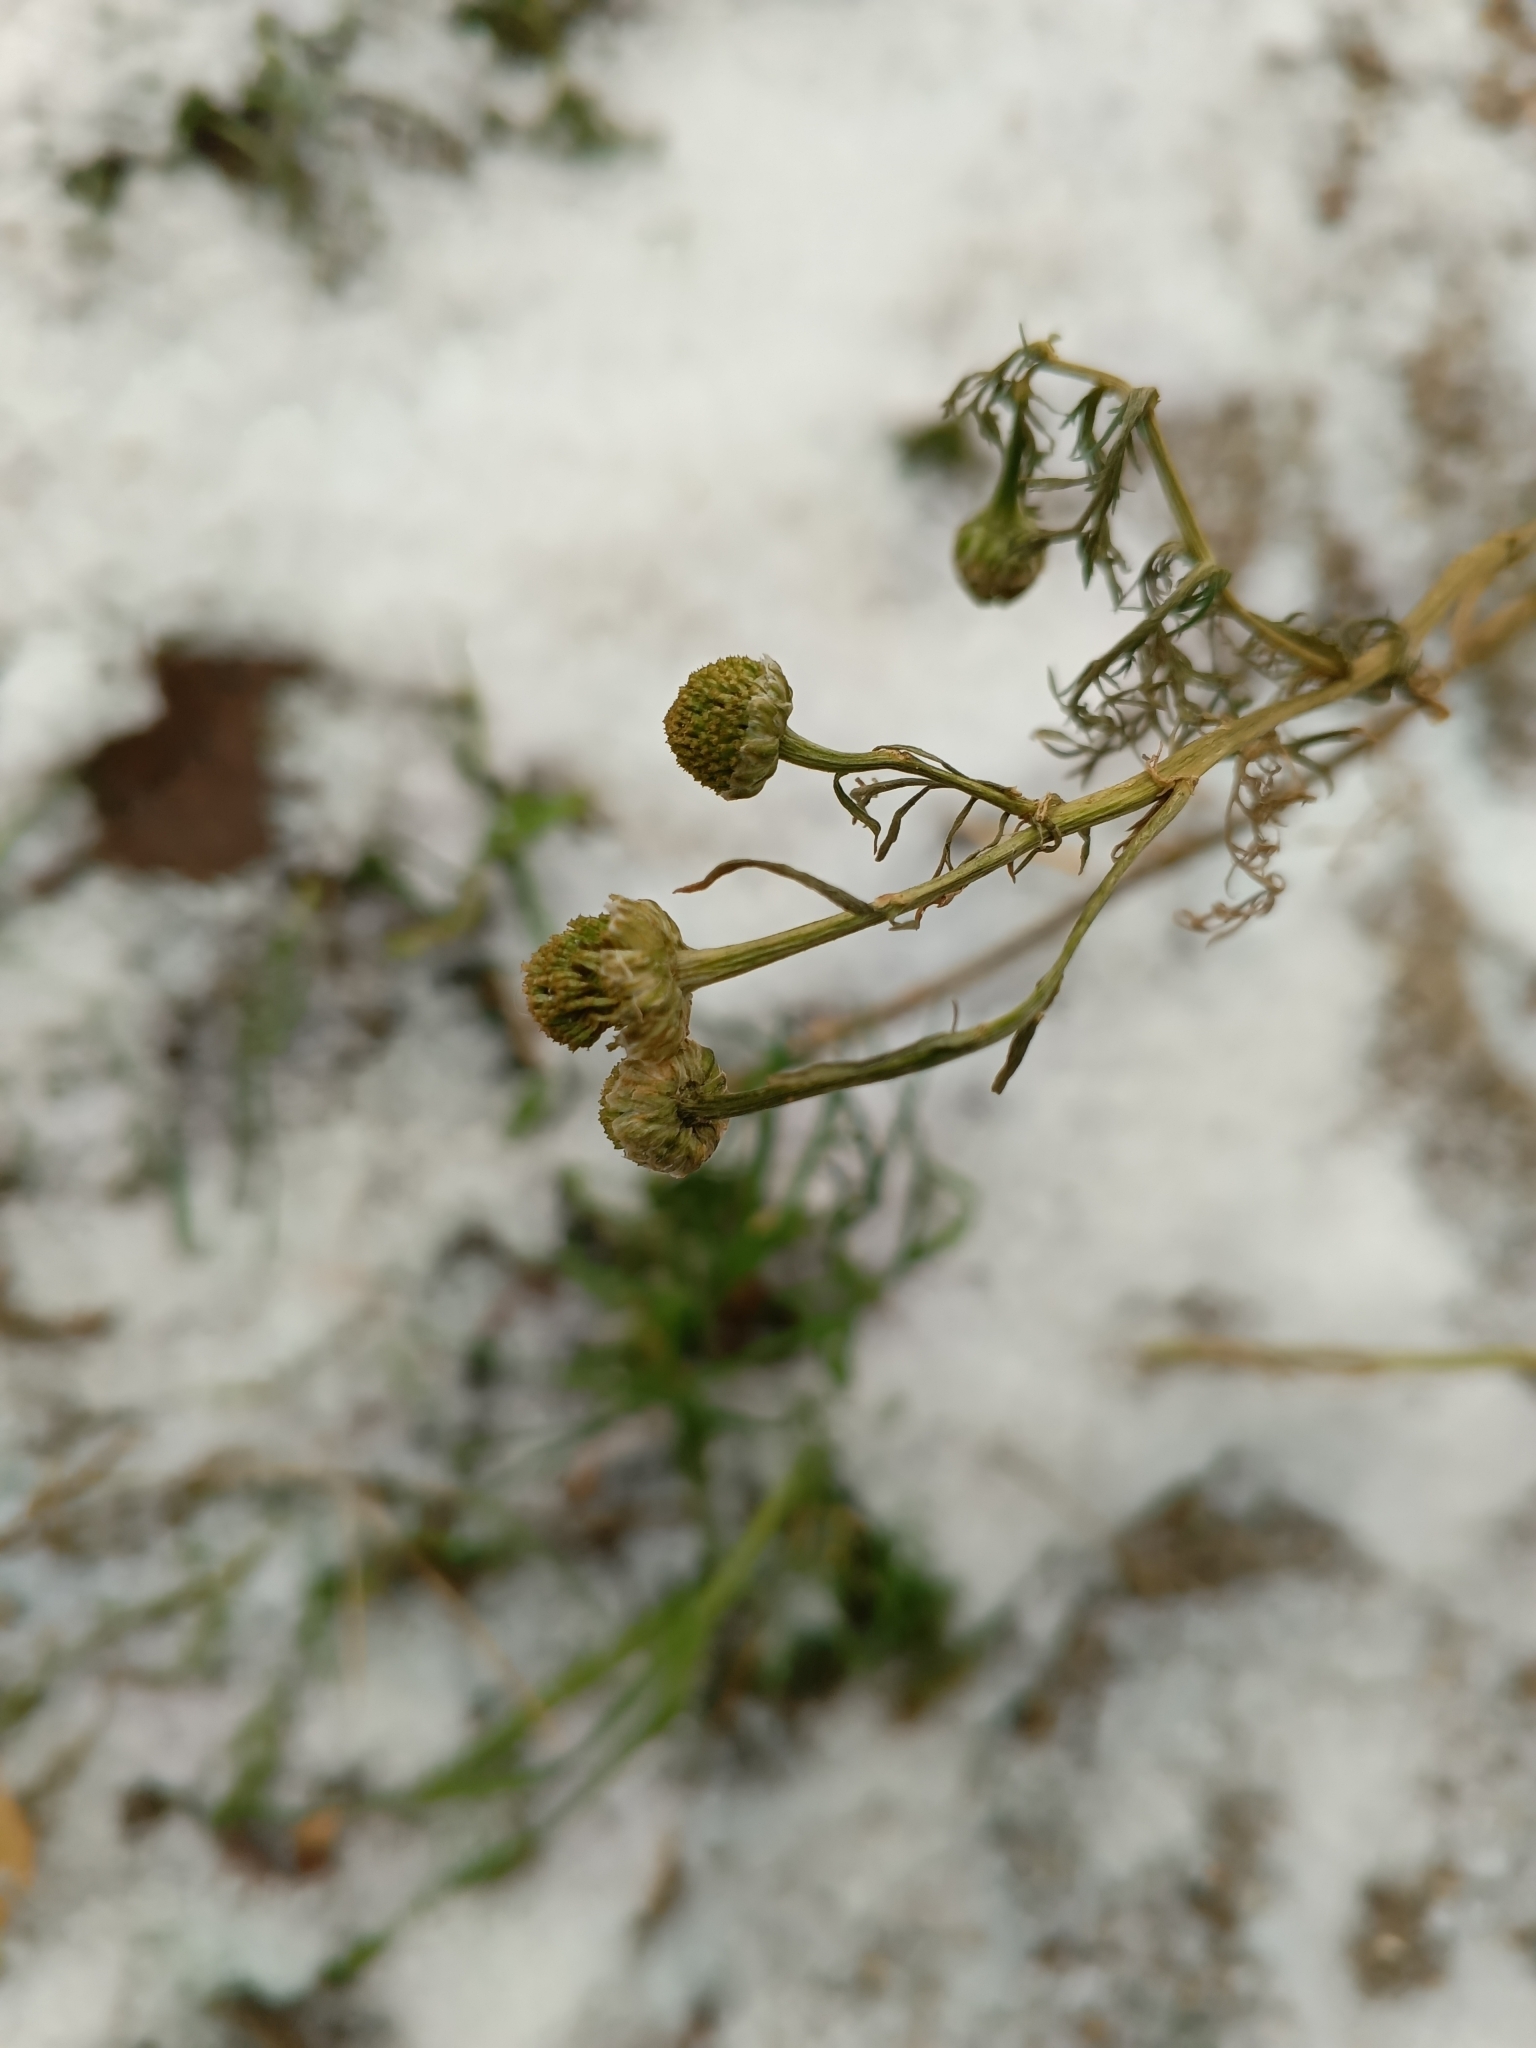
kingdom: Plantae
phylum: Tracheophyta
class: Magnoliopsida
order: Asterales
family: Asteraceae
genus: Tripleurospermum
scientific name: Tripleurospermum inodorum
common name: Scentless mayweed
